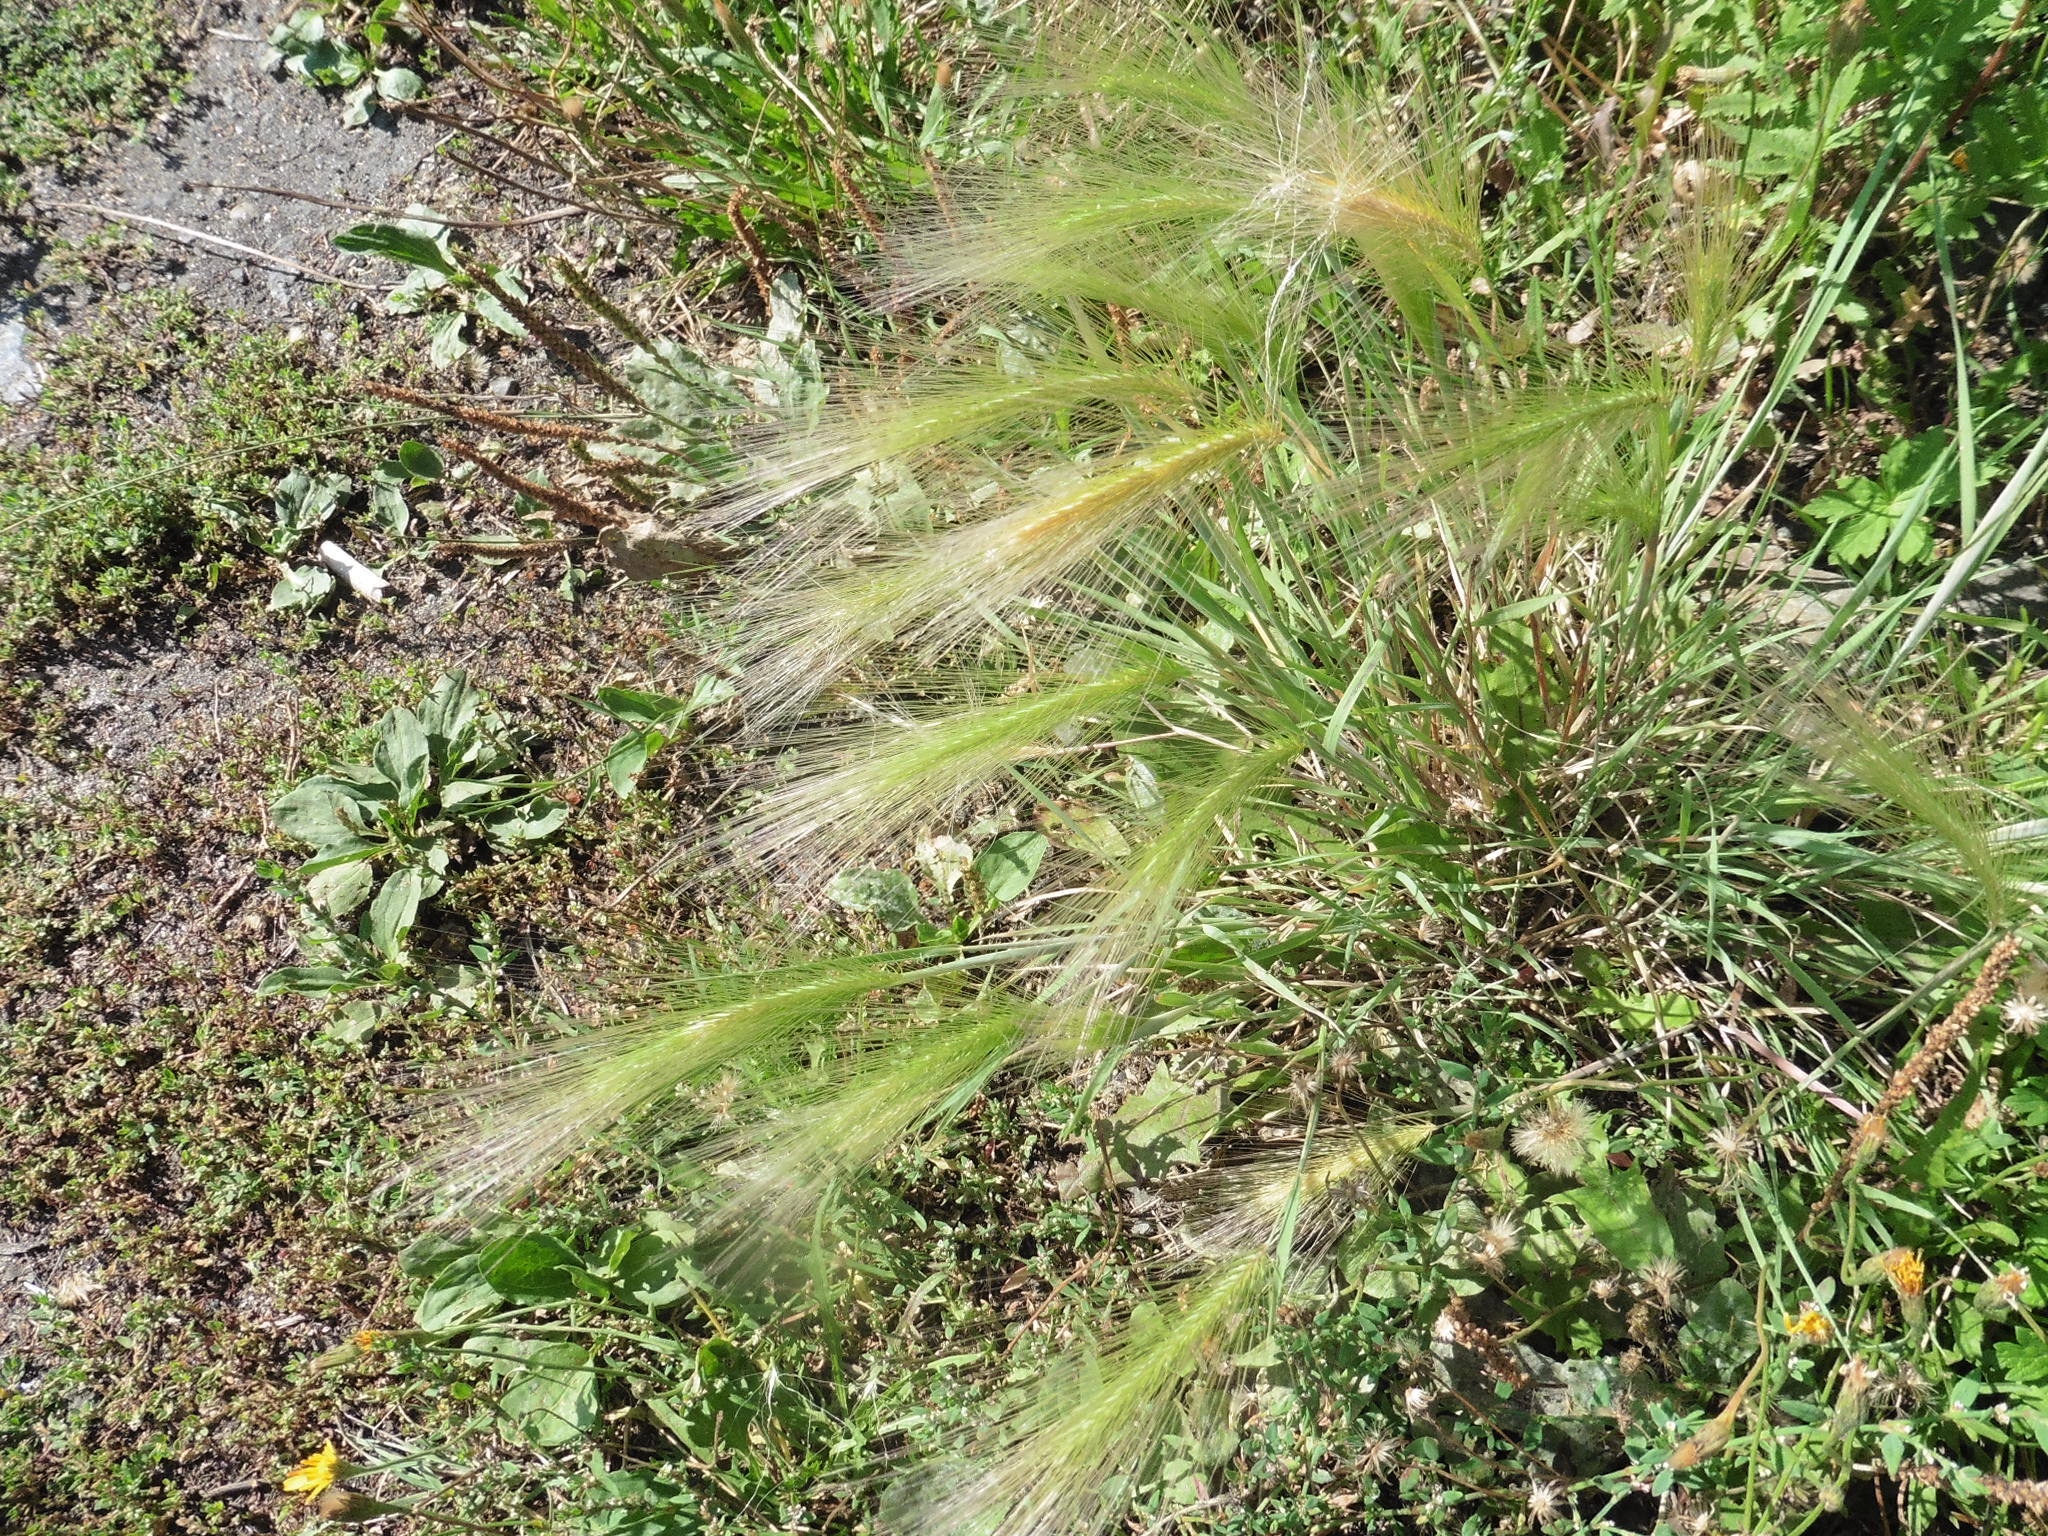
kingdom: Plantae
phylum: Tracheophyta
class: Liliopsida
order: Poales
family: Poaceae
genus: Hordeum
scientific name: Hordeum jubatum
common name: Foxtail barley
